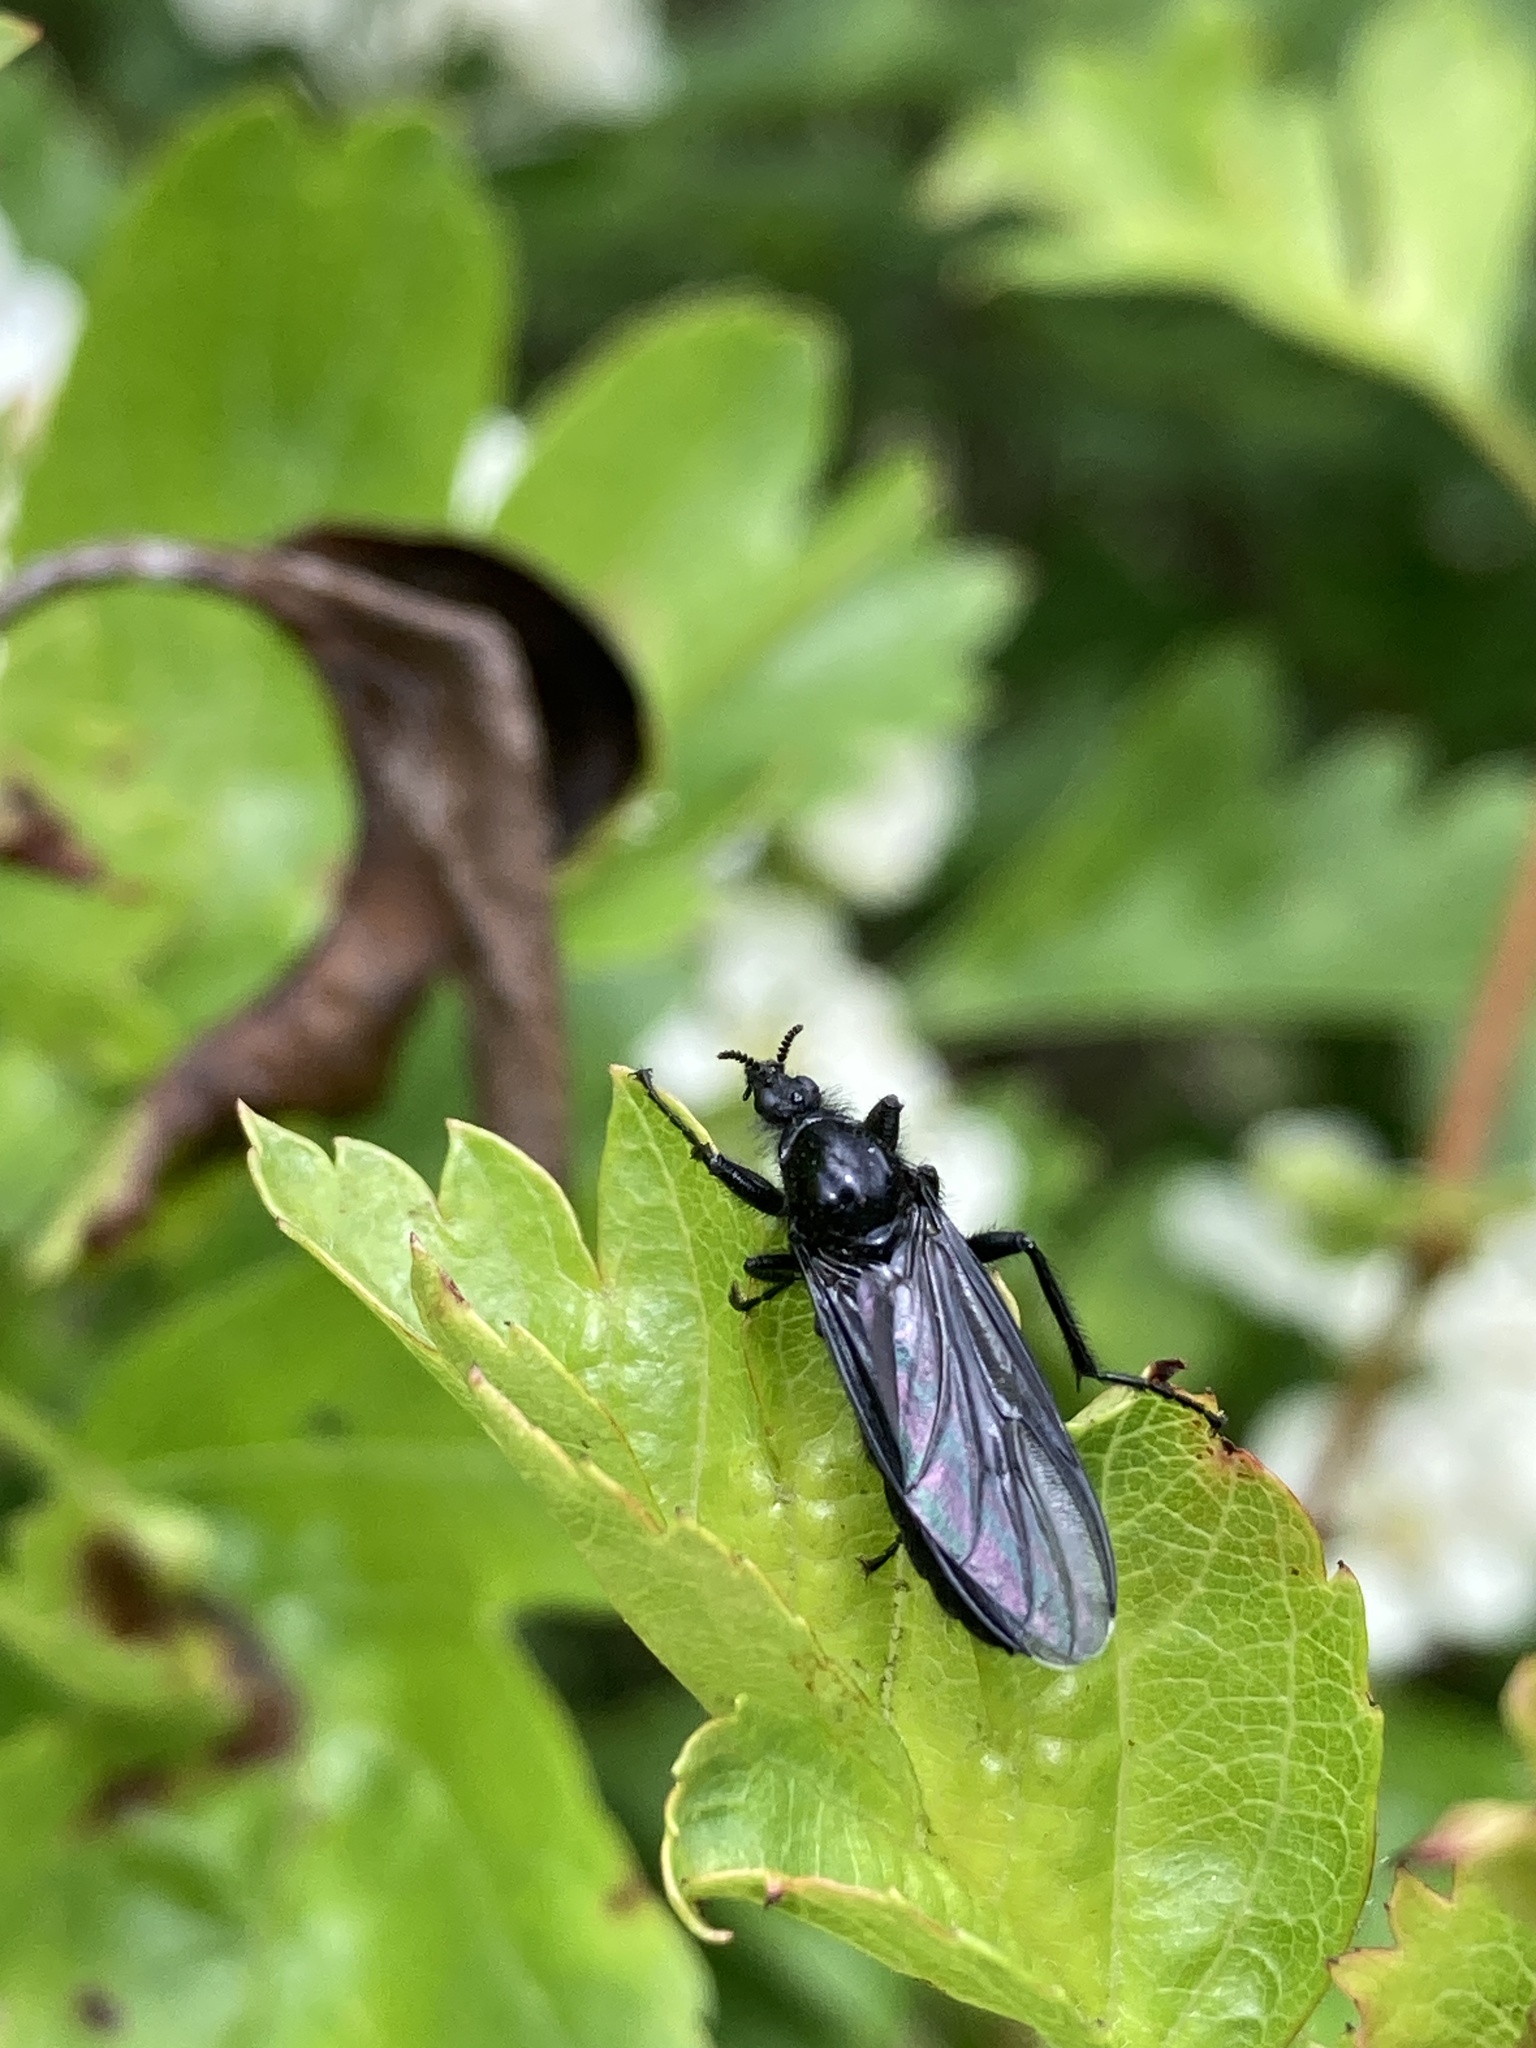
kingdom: Animalia
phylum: Arthropoda
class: Insecta
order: Diptera
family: Bibionidae
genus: Bibio
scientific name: Bibio marci
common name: St marks fly
